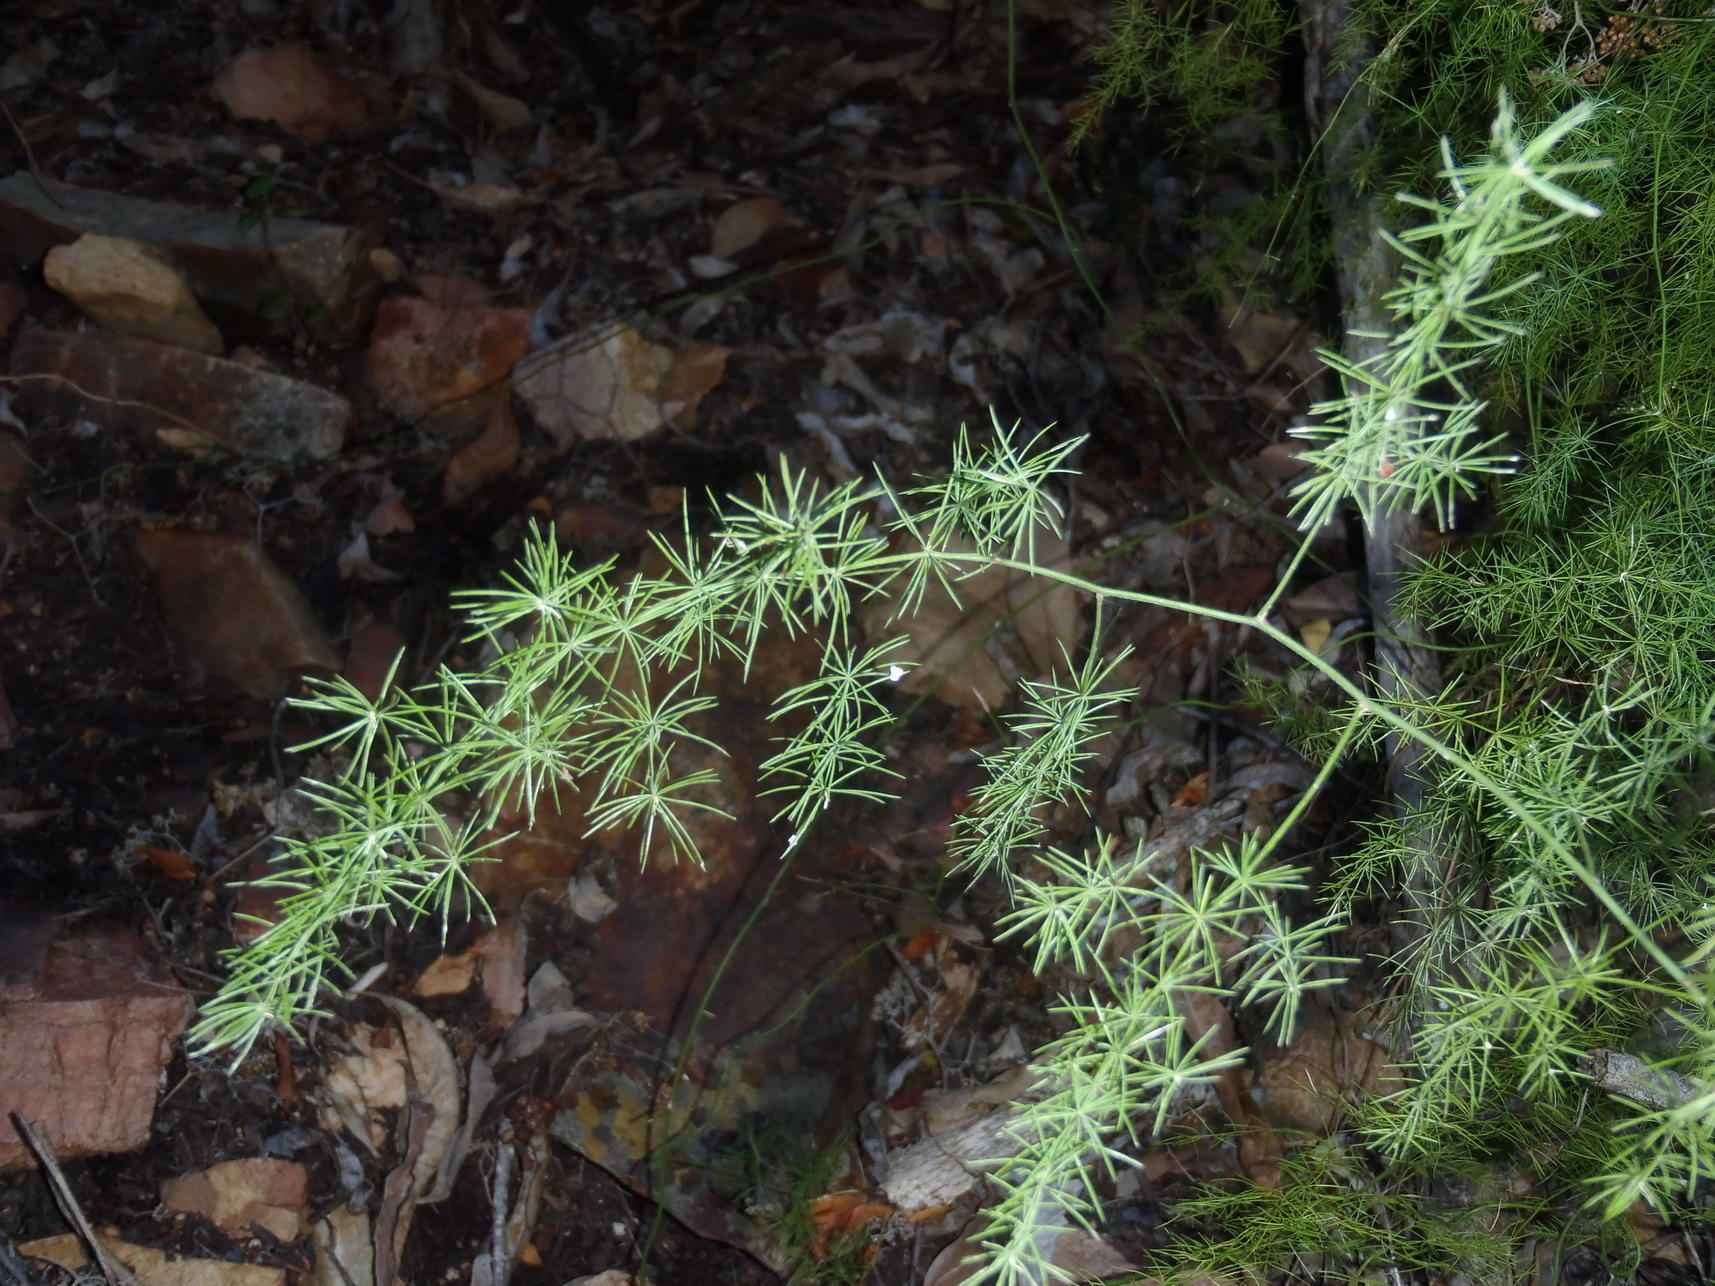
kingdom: Plantae
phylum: Tracheophyta
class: Liliopsida
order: Asparagales
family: Asparagaceae
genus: Asparagus
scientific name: Asparagus setaceus
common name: Common asparagus fern
